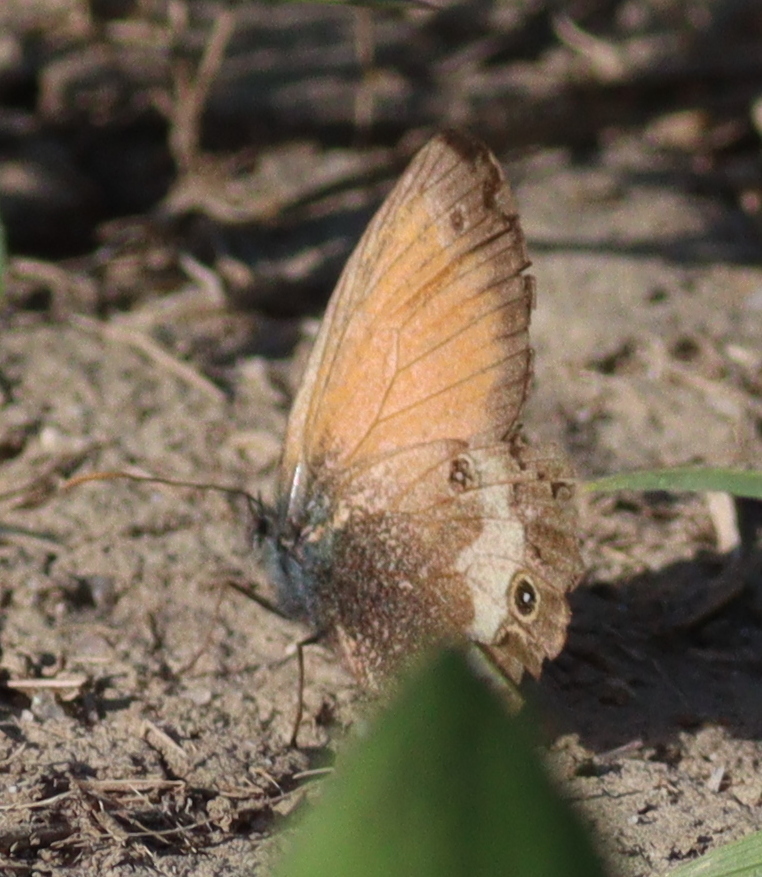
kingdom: Animalia
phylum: Arthropoda
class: Insecta
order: Lepidoptera
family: Nymphalidae
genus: Coenonympha
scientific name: Coenonympha arcania
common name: Pearly heath
